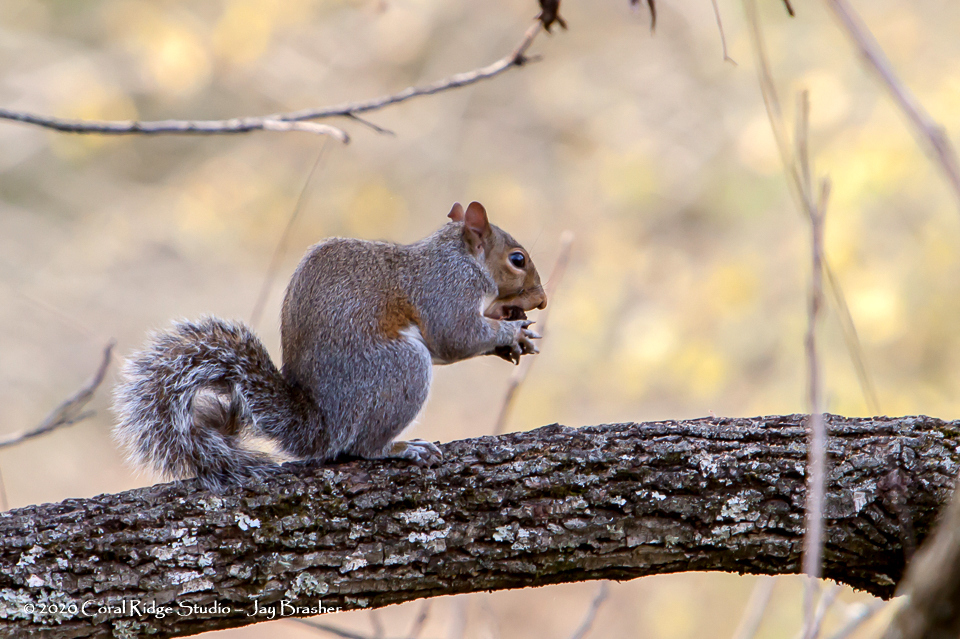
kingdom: Animalia
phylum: Chordata
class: Mammalia
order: Rodentia
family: Sciuridae
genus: Sciurus
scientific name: Sciurus carolinensis
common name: Eastern gray squirrel
